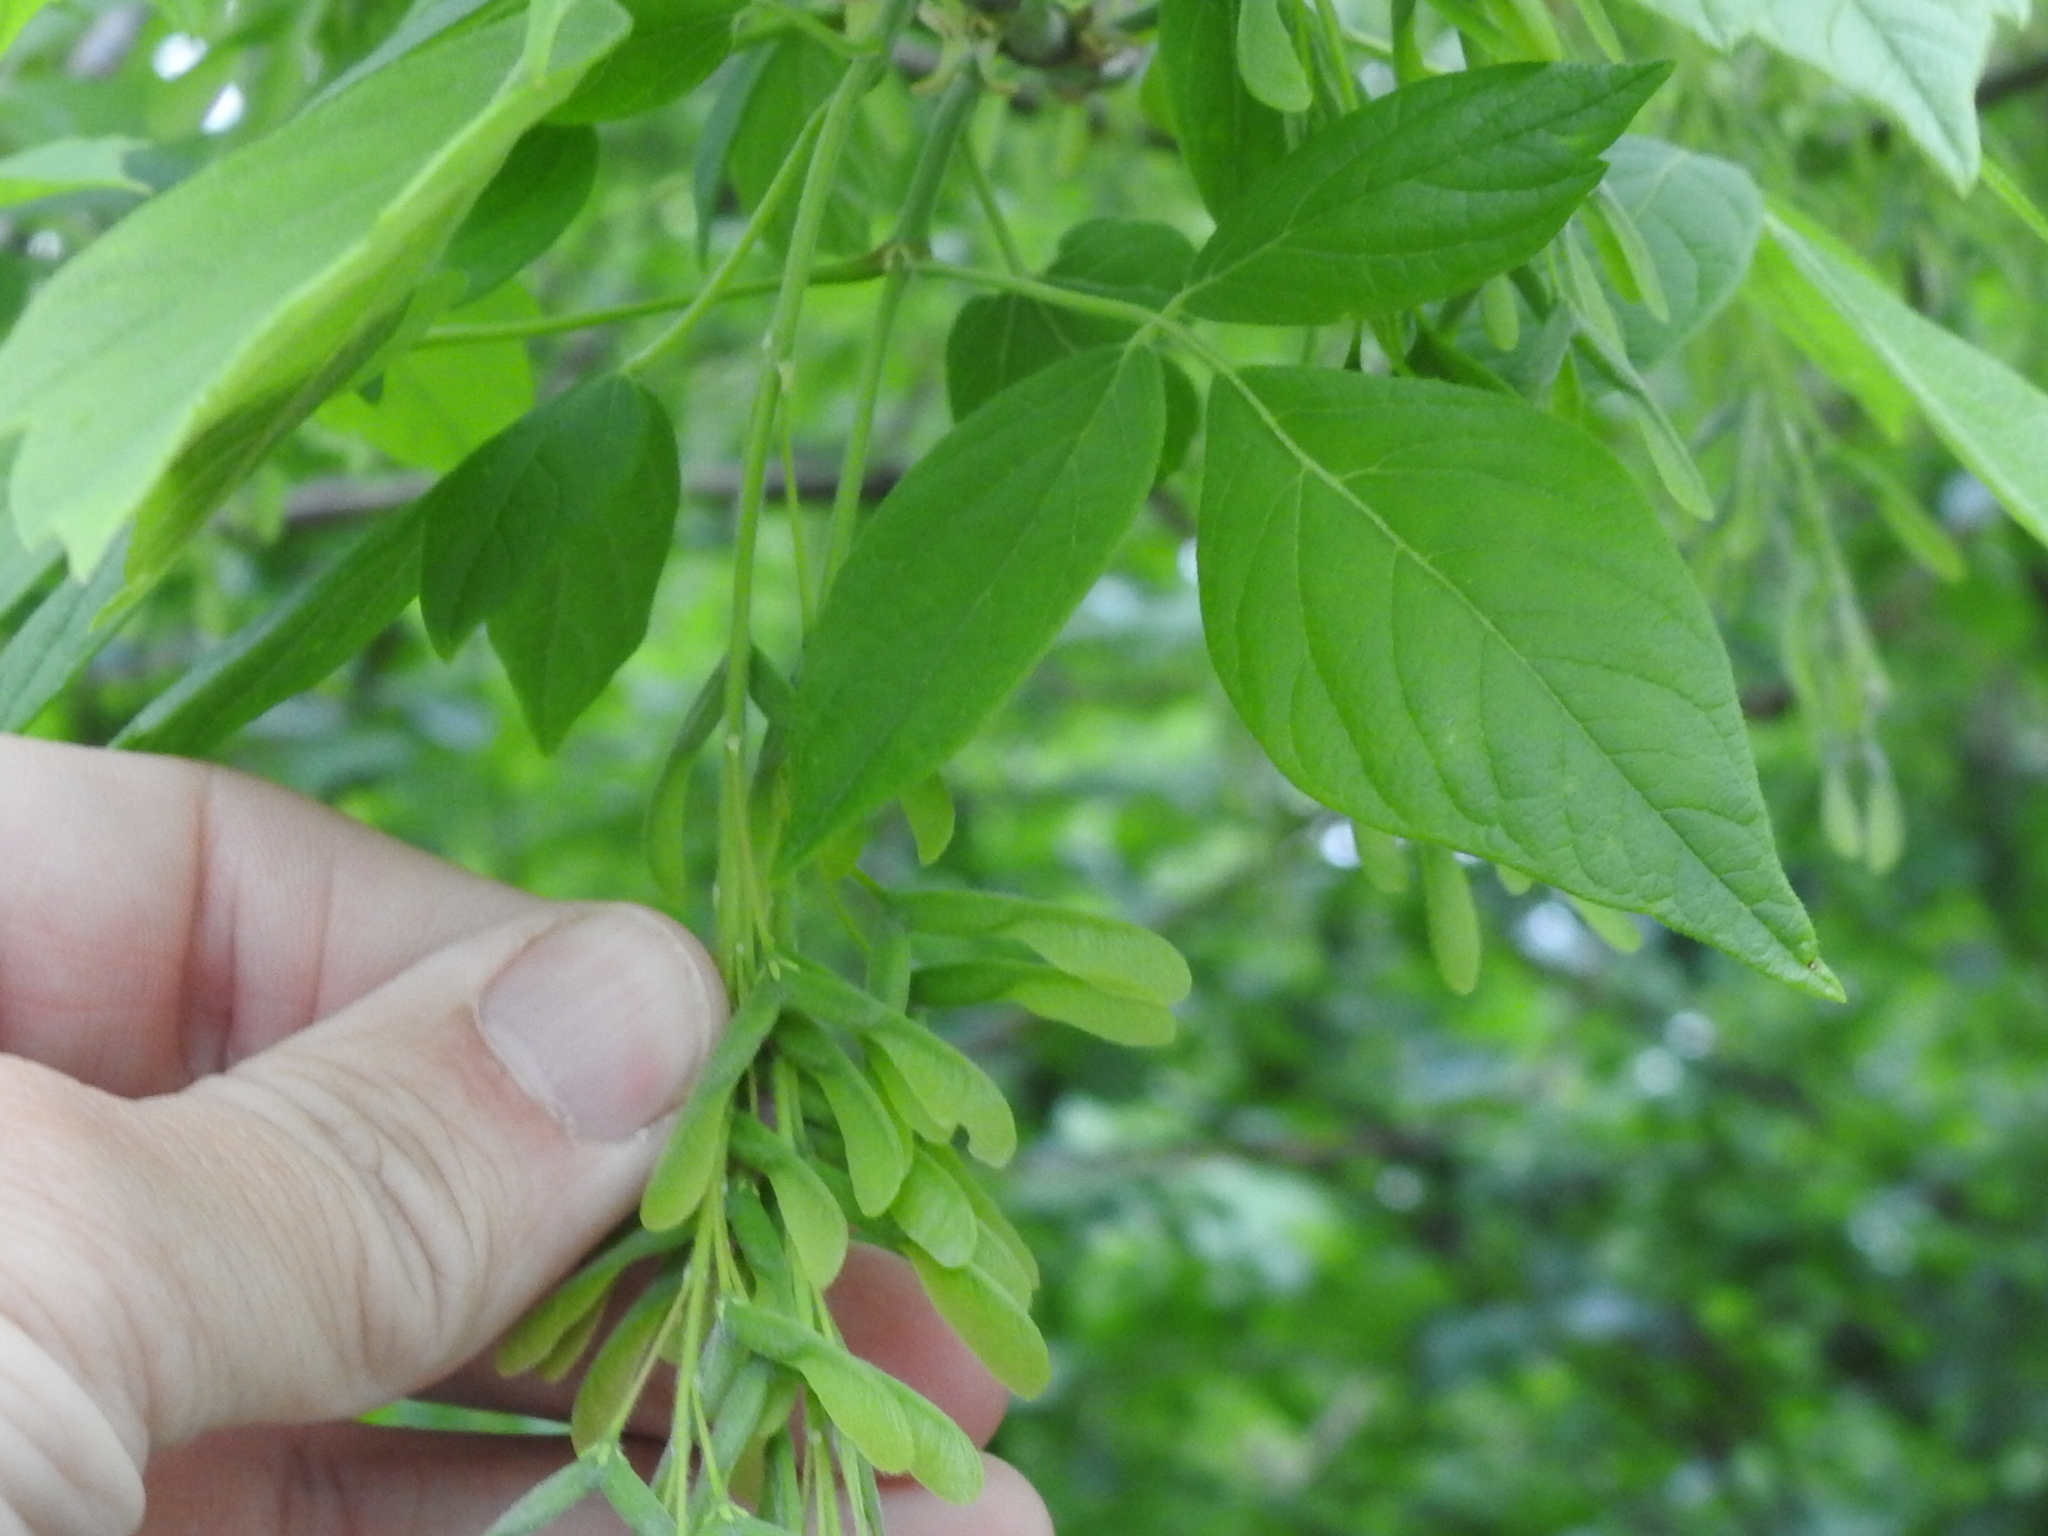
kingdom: Plantae
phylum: Tracheophyta
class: Magnoliopsida
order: Sapindales
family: Sapindaceae
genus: Acer
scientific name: Acer negundo
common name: Ashleaf maple
